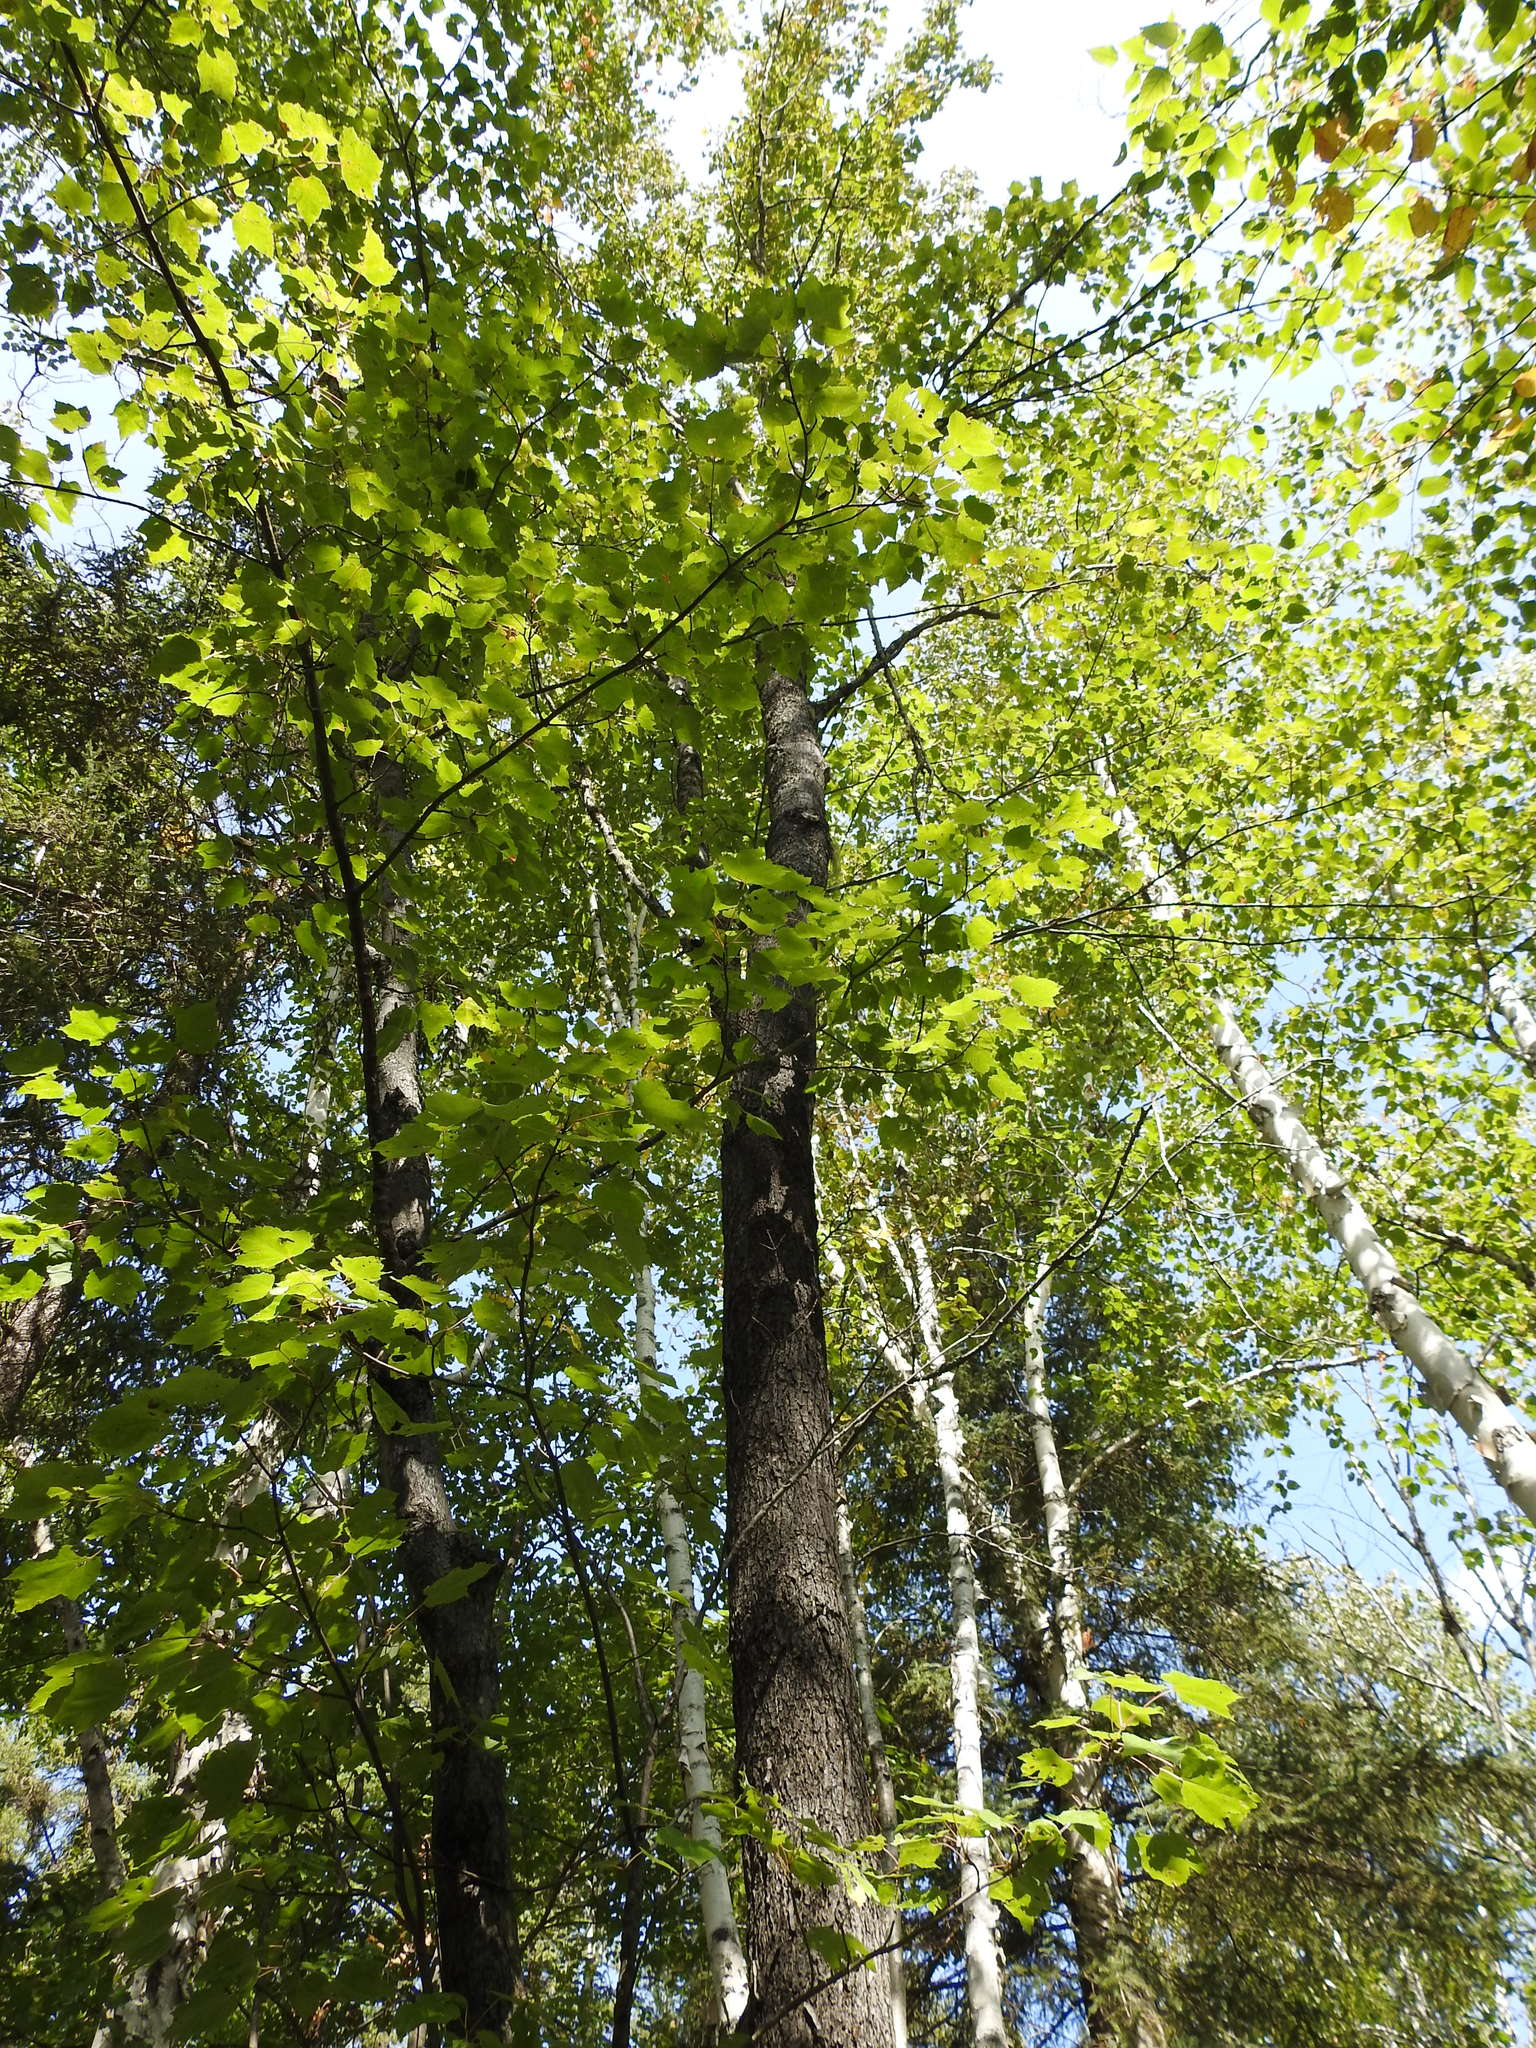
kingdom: Plantae
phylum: Tracheophyta
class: Magnoliopsida
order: Sapindales
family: Sapindaceae
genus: Acer
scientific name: Acer rubrum
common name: Red maple
